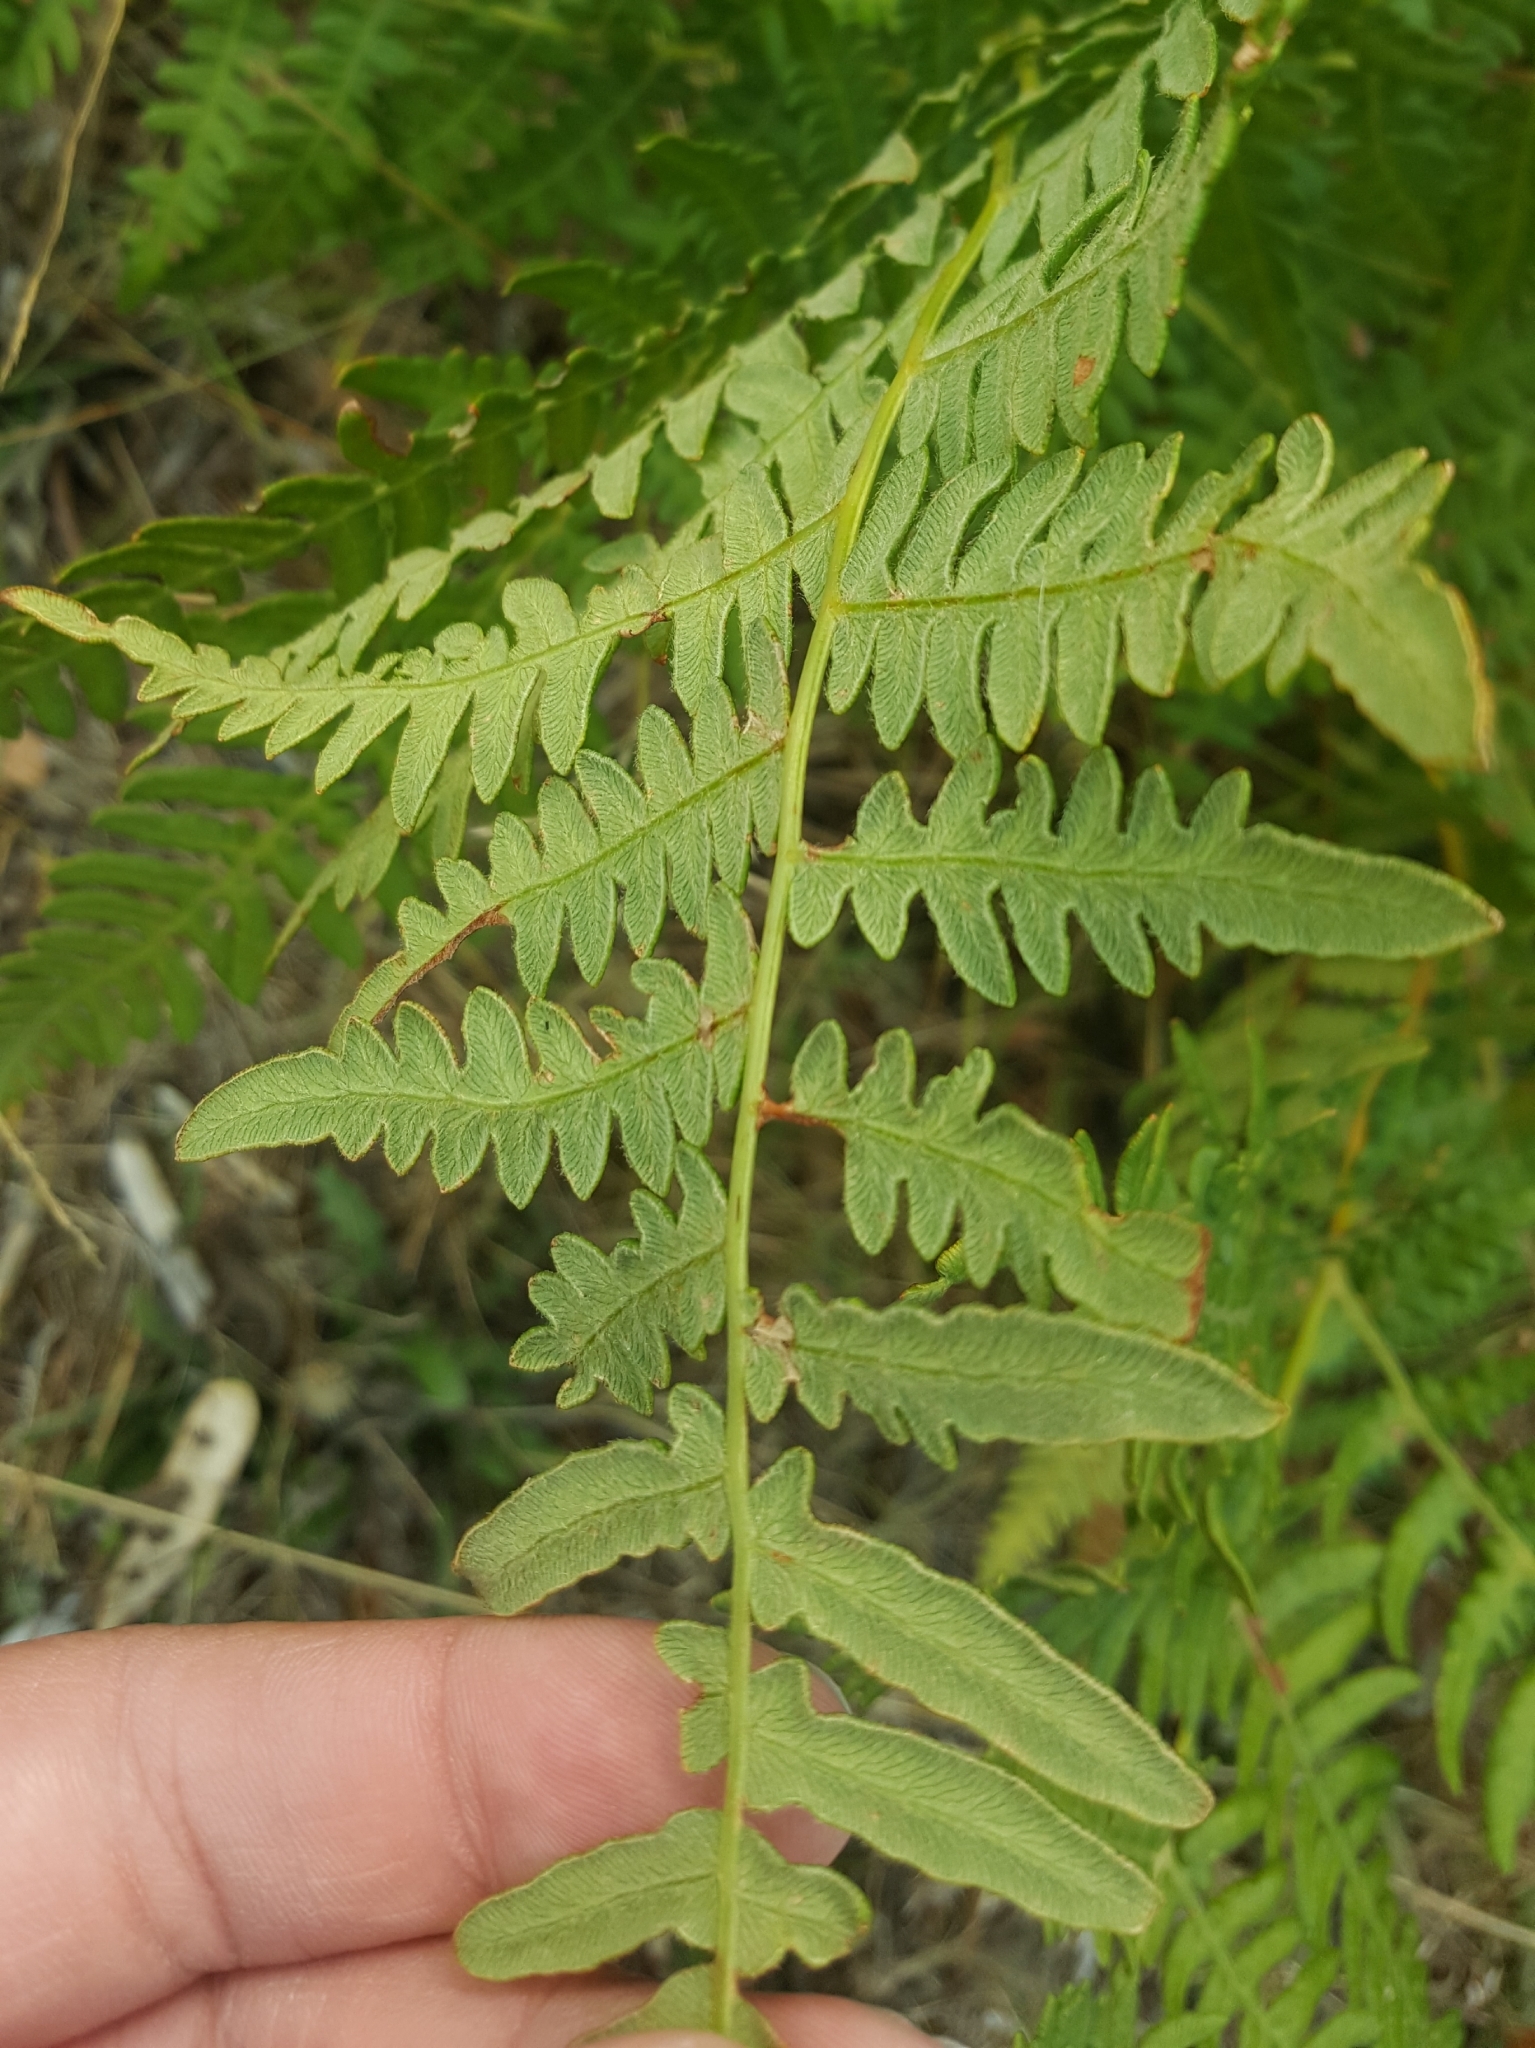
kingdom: Plantae
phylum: Tracheophyta
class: Polypodiopsida
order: Polypodiales
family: Dennstaedtiaceae
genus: Pteridium
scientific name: Pteridium aquilinum
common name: Bracken
